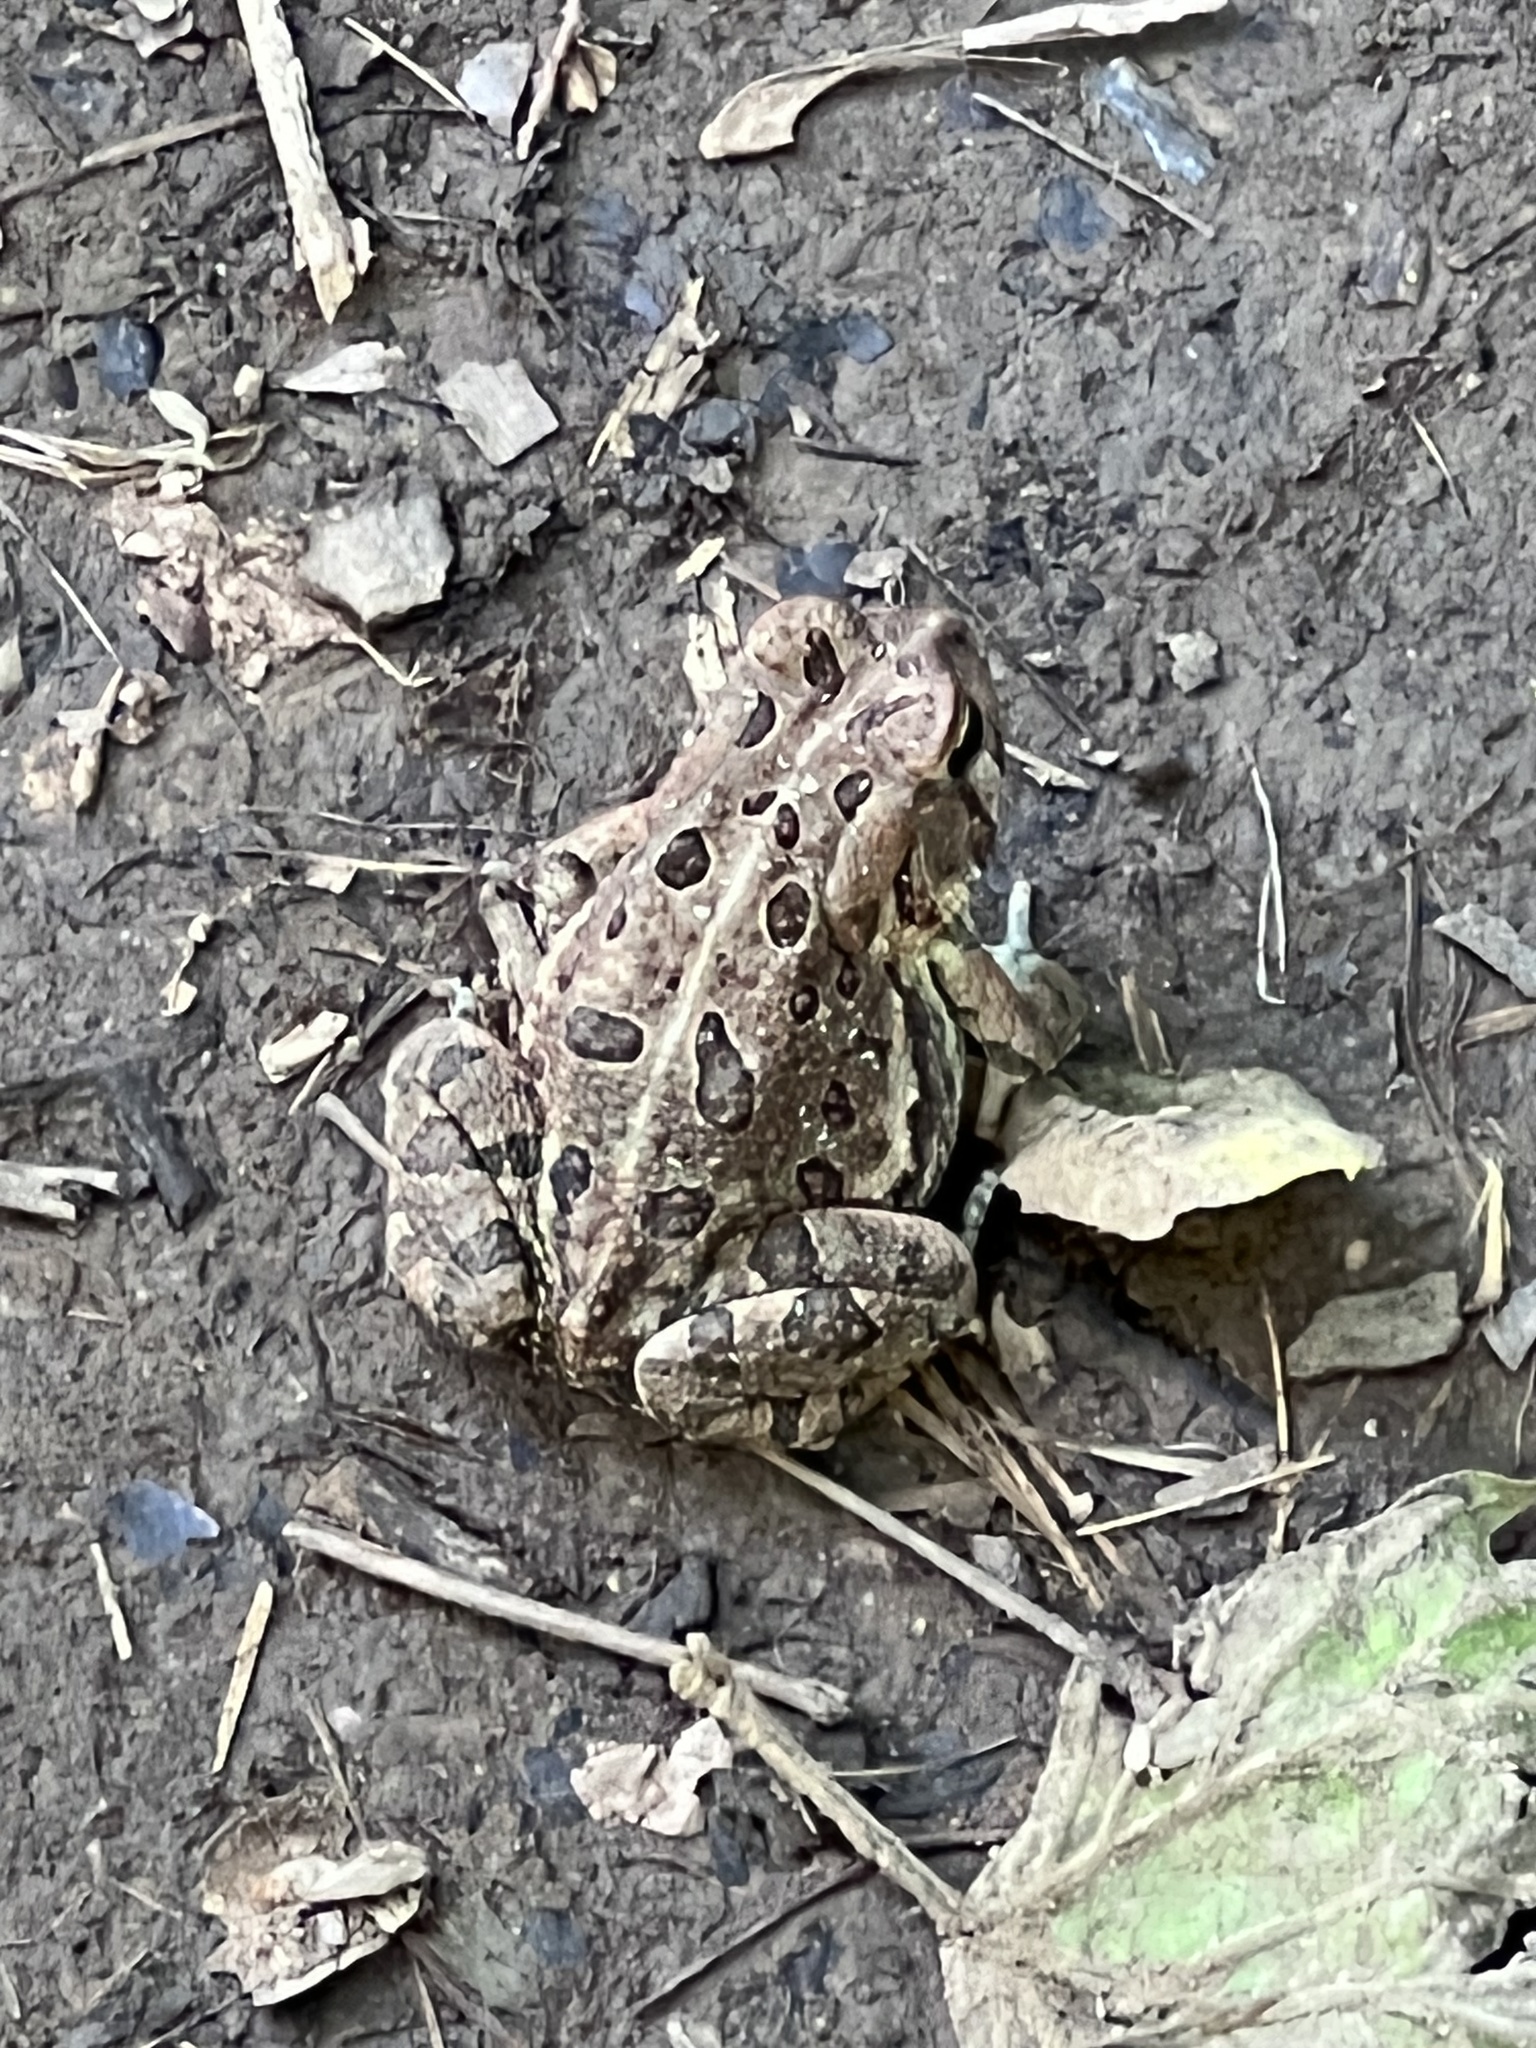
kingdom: Animalia
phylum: Chordata
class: Amphibia
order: Anura
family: Bufonidae
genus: Anaxyrus
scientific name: Anaxyrus fowleri
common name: Fowler's toad
